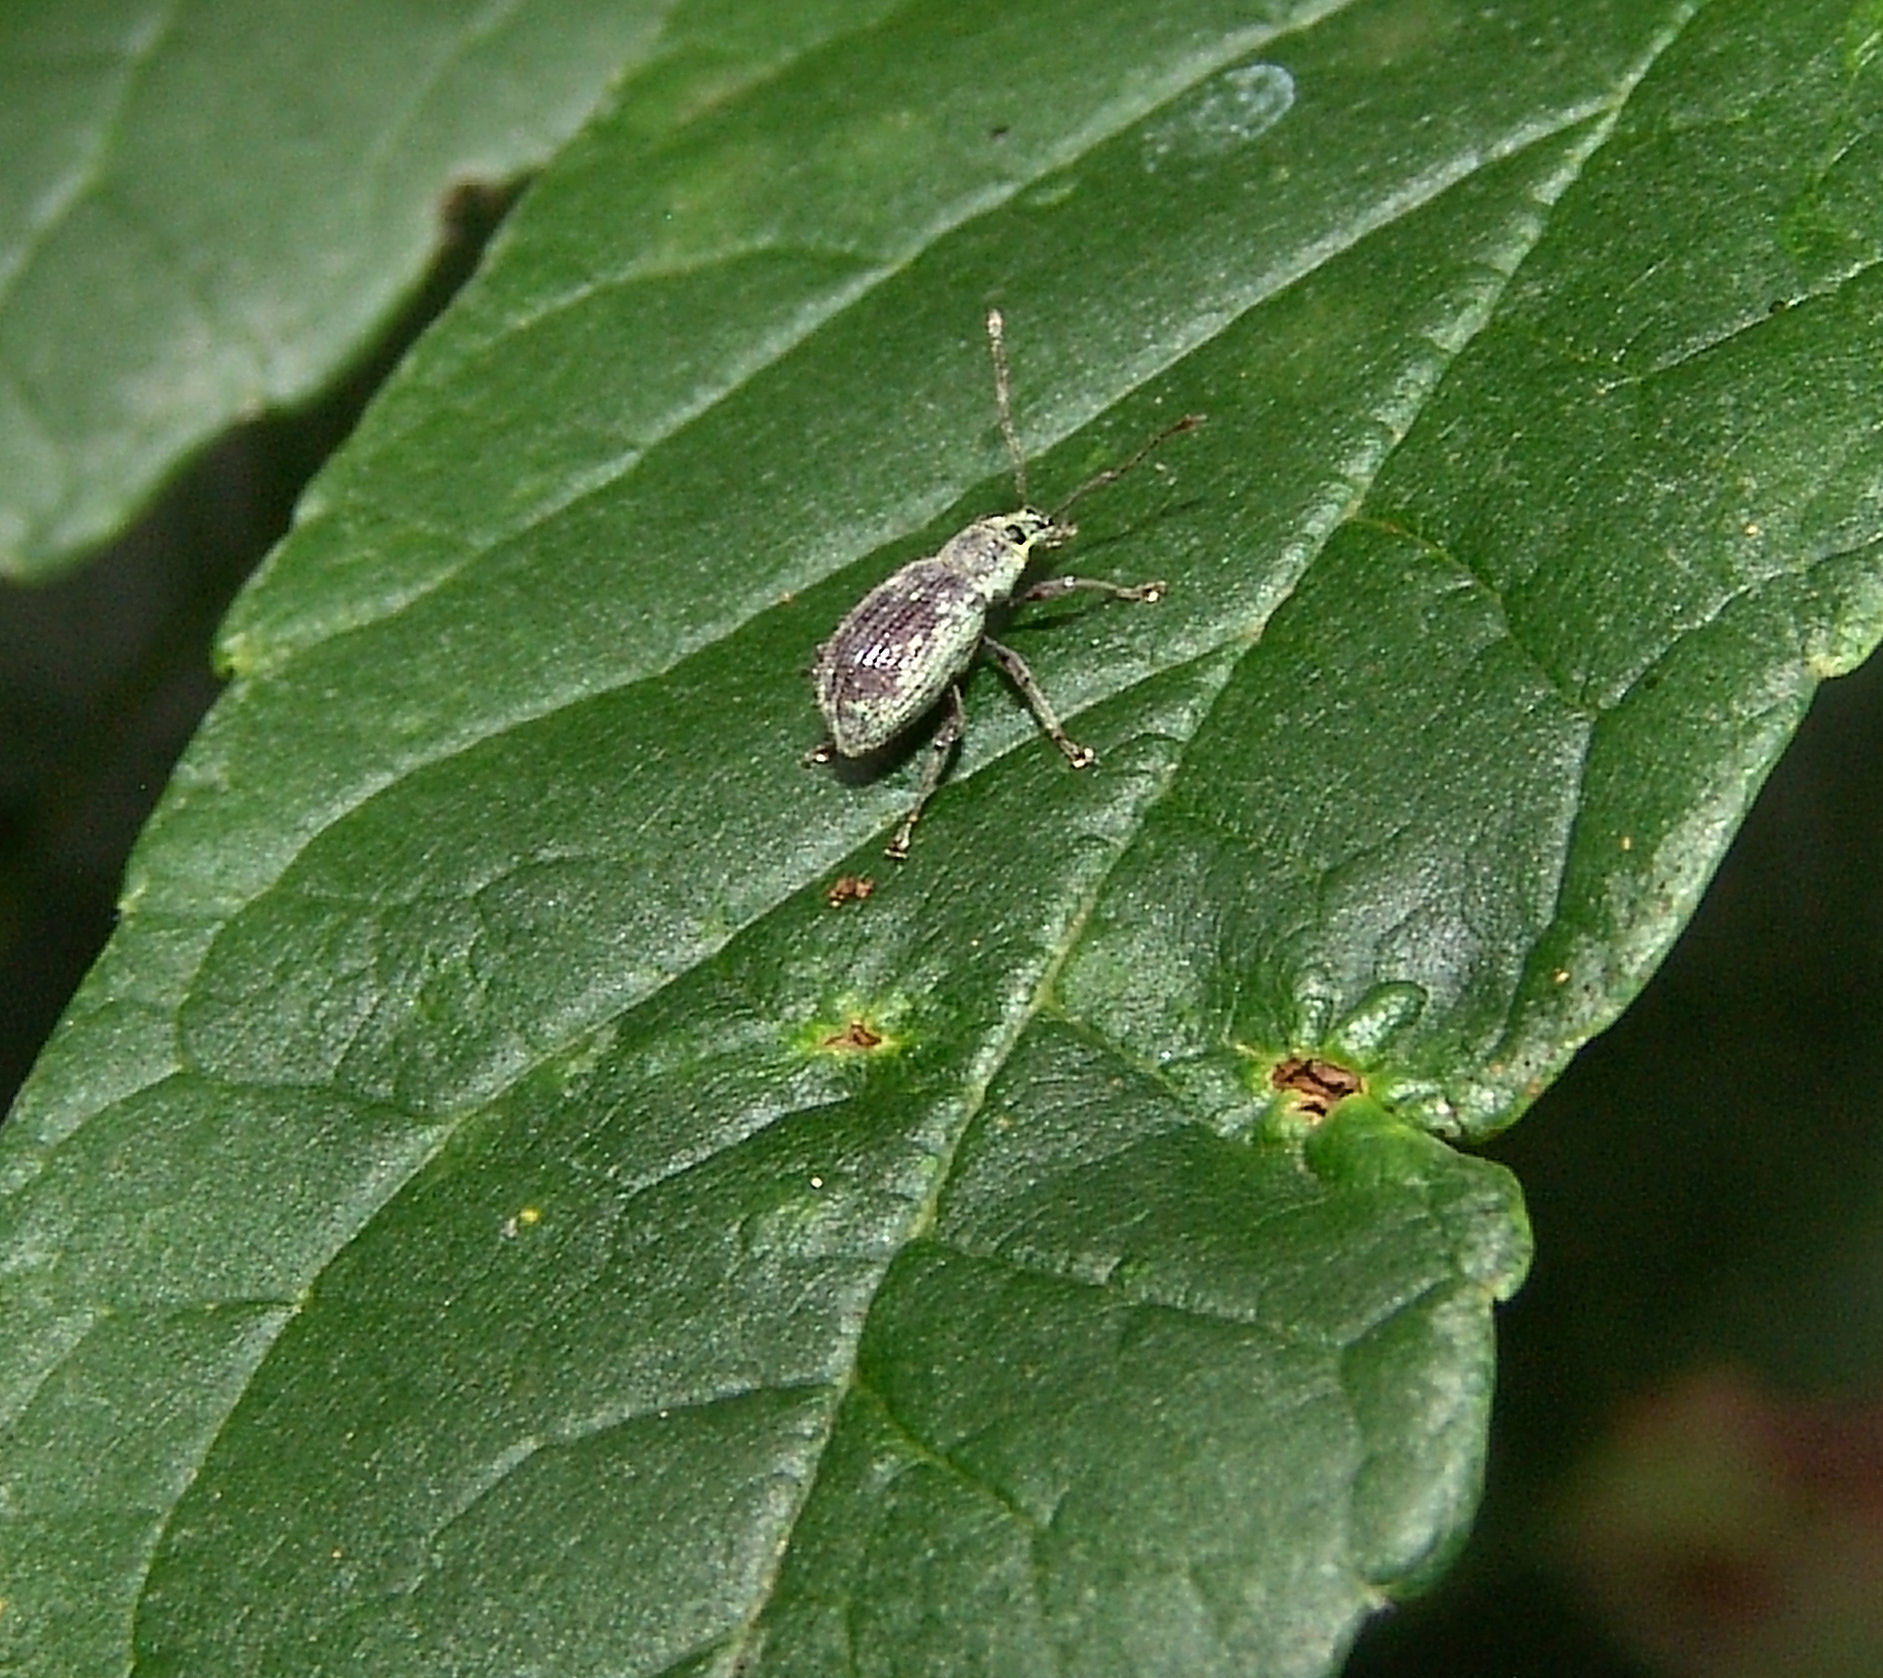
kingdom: Animalia
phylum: Arthropoda
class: Insecta
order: Coleoptera
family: Curculionidae
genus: Cyrtepistomus
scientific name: Cyrtepistomus castaneus
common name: Weevil
